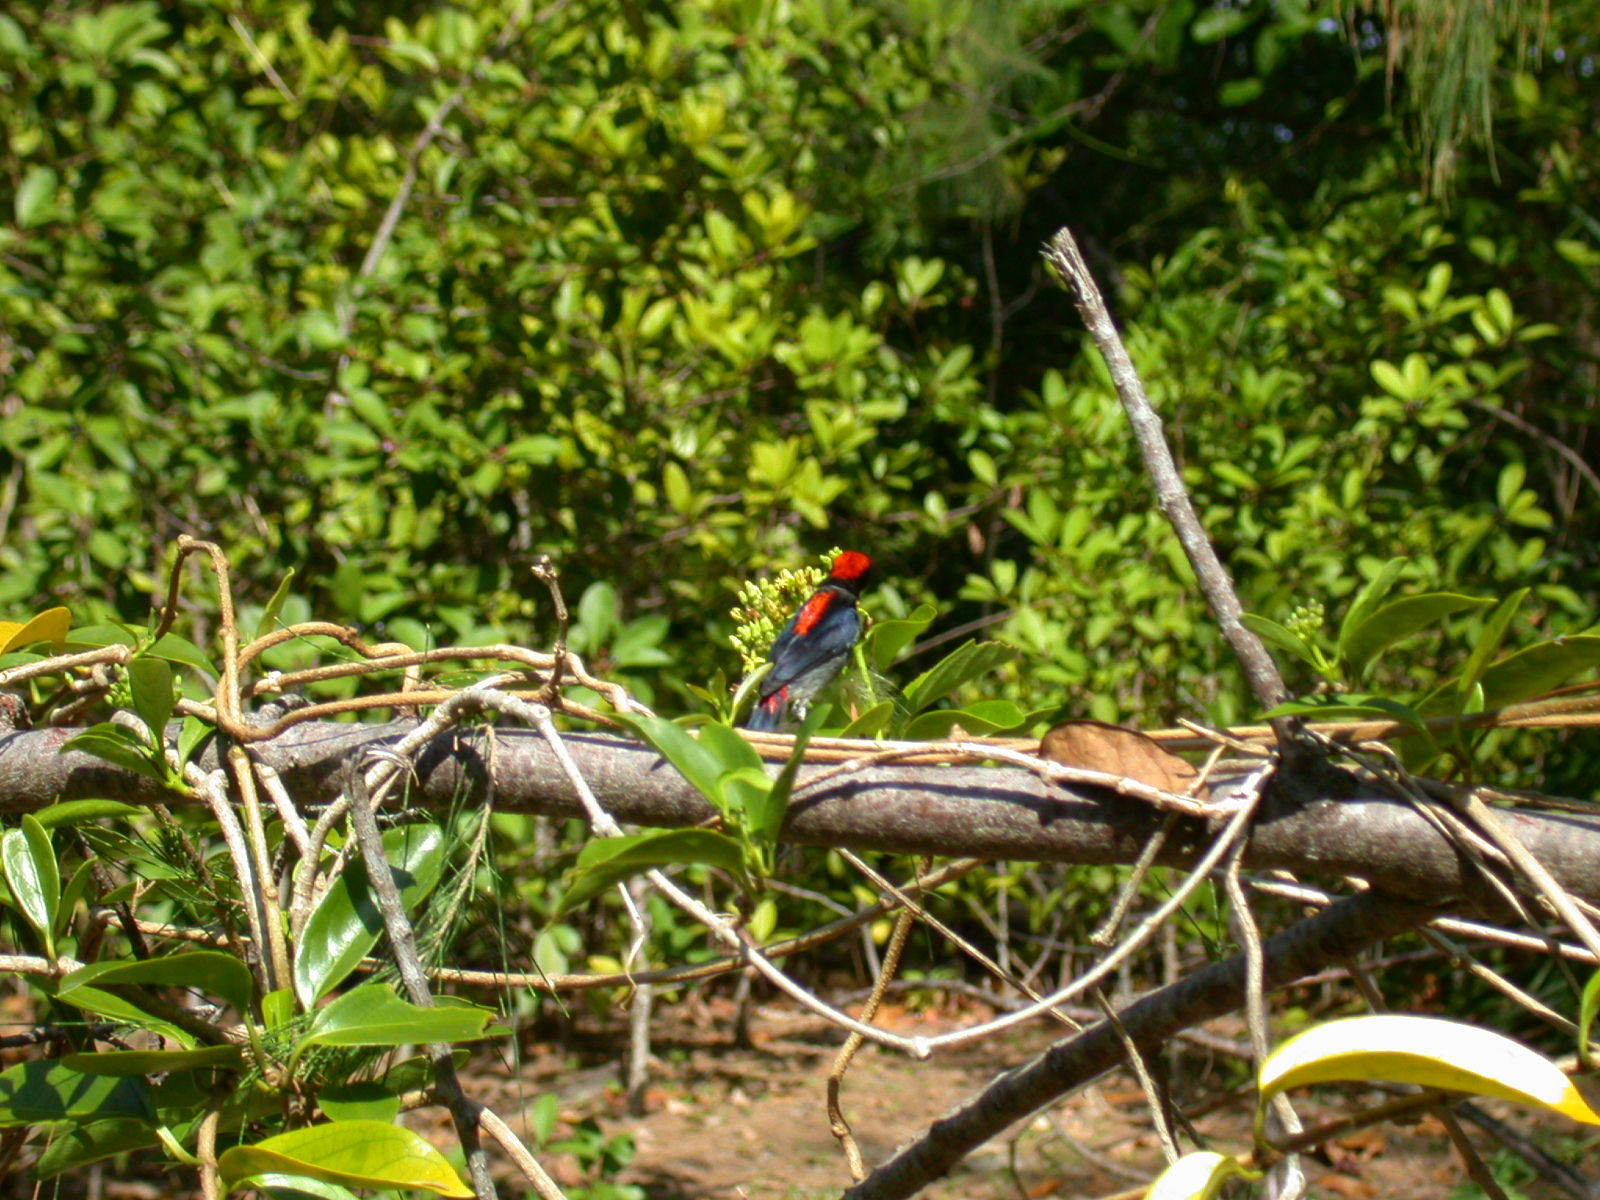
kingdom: Animalia
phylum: Chordata
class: Aves
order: Passeriformes
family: Dicaeidae
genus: Dicaeum
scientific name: Dicaeum cruentatum
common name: Scarlet-backed flowerpecker
